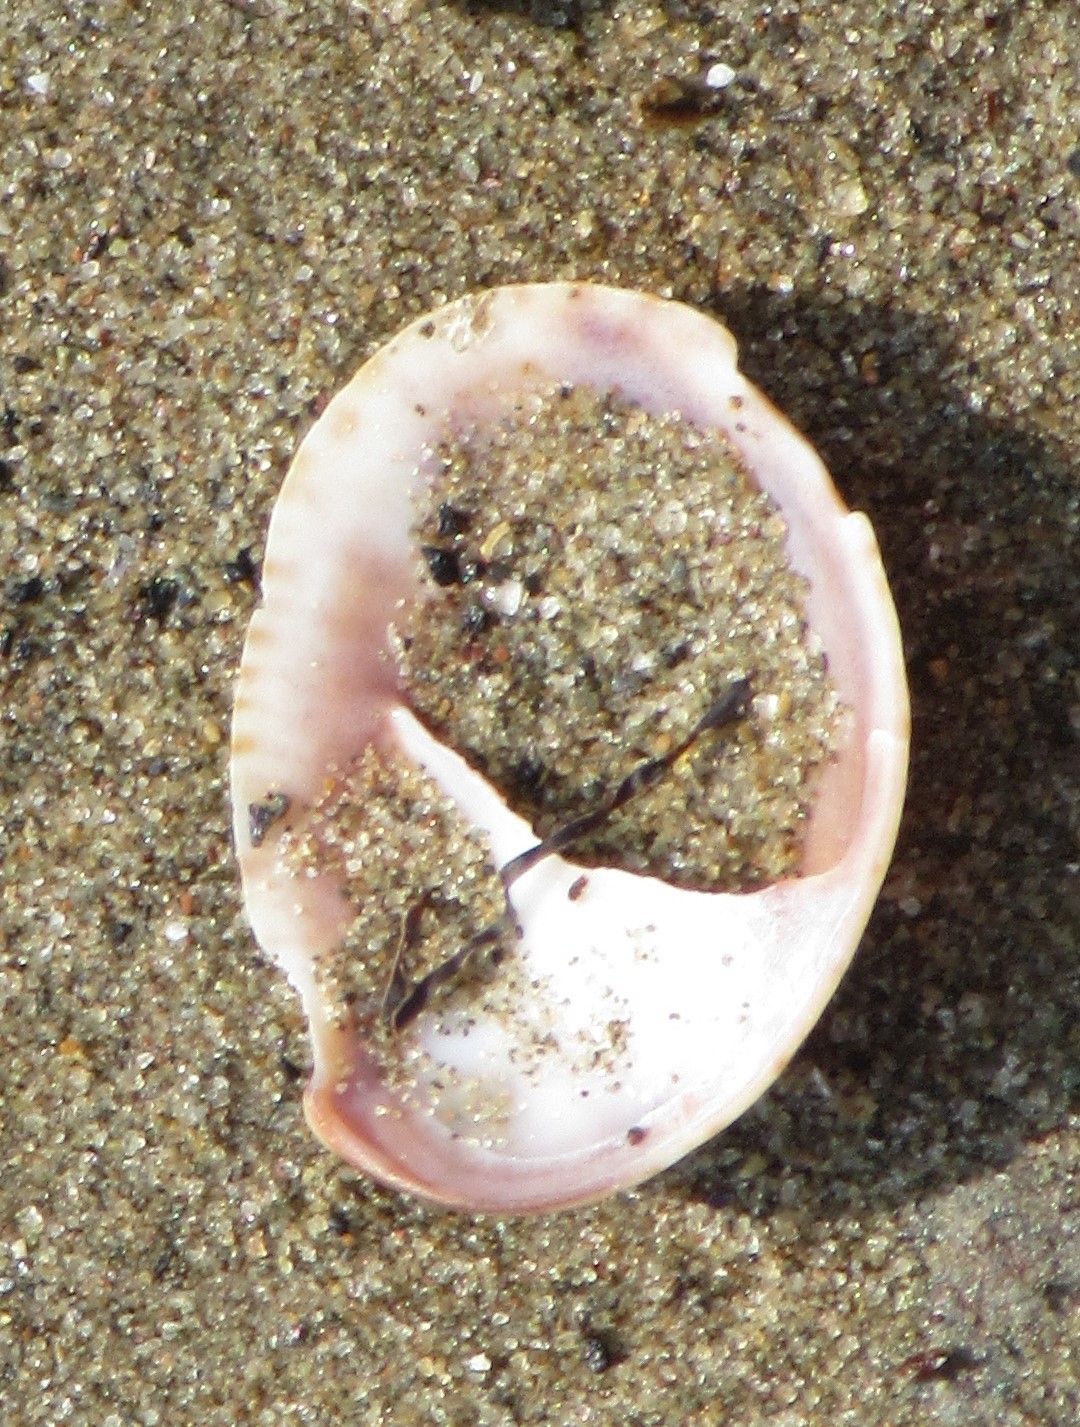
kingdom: Animalia
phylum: Mollusca
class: Gastropoda
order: Littorinimorpha
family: Calyptraeidae
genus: Crepidula
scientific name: Crepidula fornicata
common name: Slipper limpet
